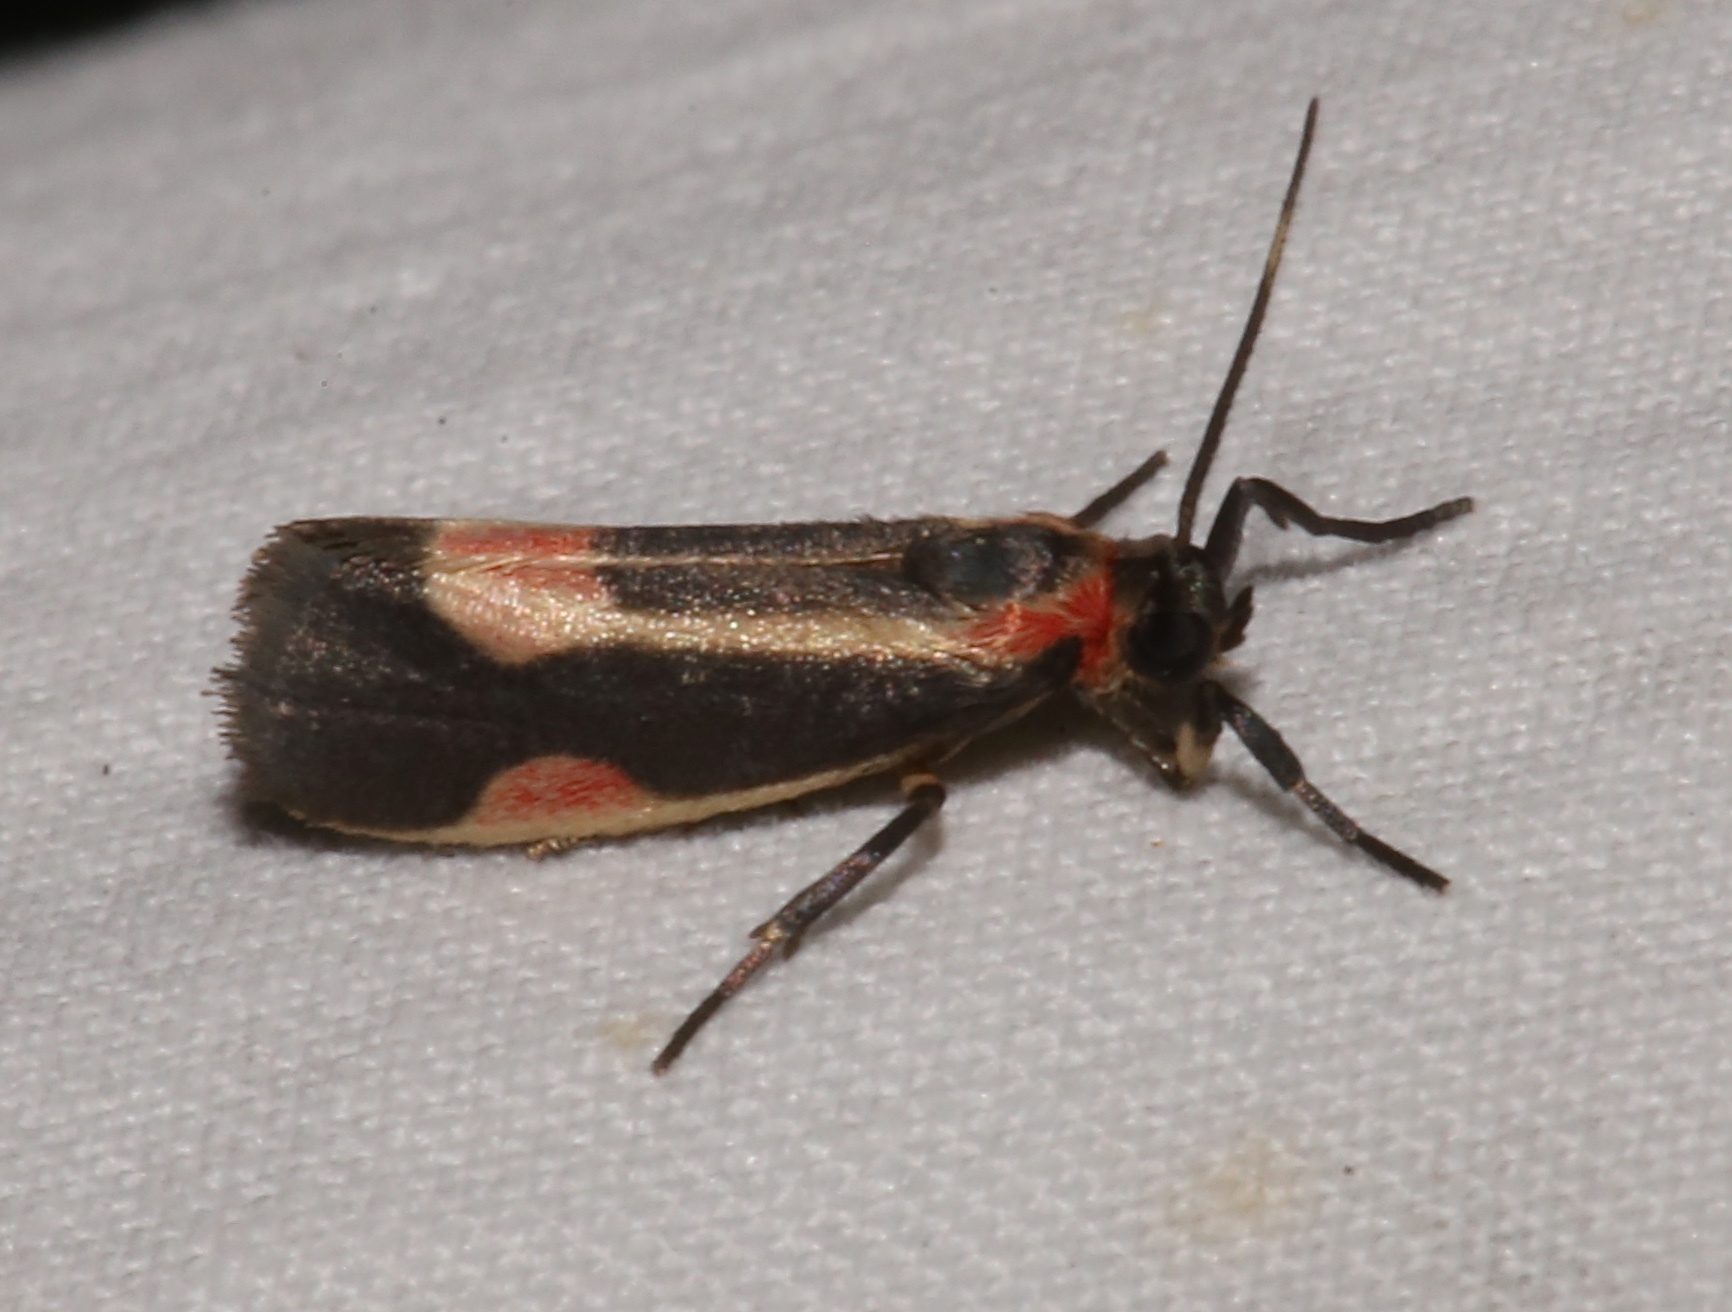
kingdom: Animalia
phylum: Arthropoda
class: Insecta
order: Lepidoptera
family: Erebidae
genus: Cisthene
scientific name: Cisthene packardii
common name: Packard's lichen moth
